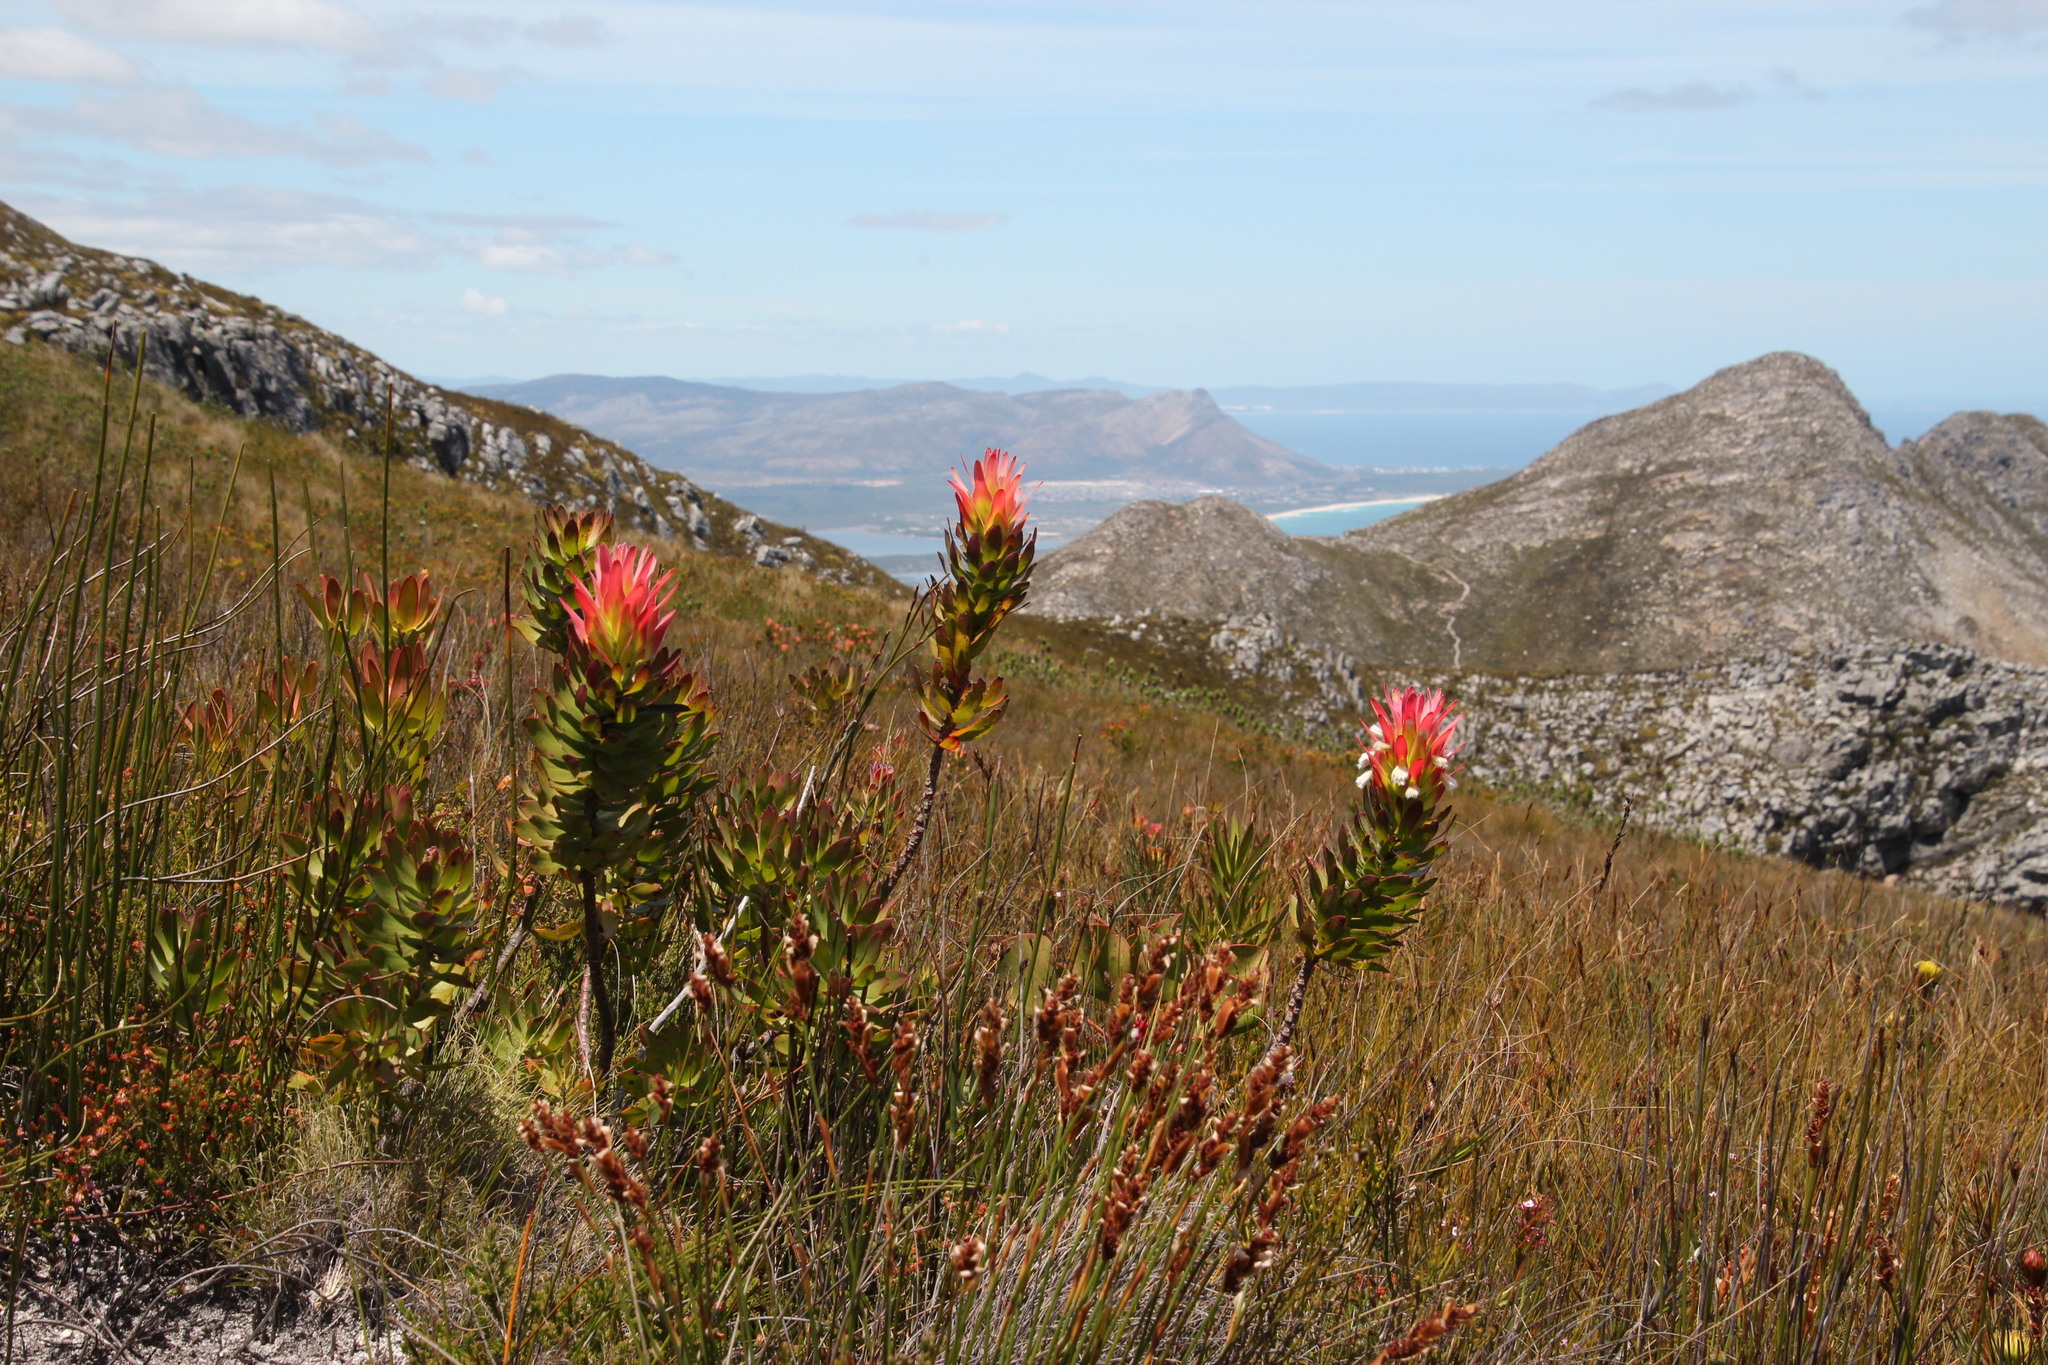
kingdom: Plantae
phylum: Tracheophyta
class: Magnoliopsida
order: Proteales
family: Proteaceae
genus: Mimetes
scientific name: Mimetes cucullatus
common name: Common pagoda
